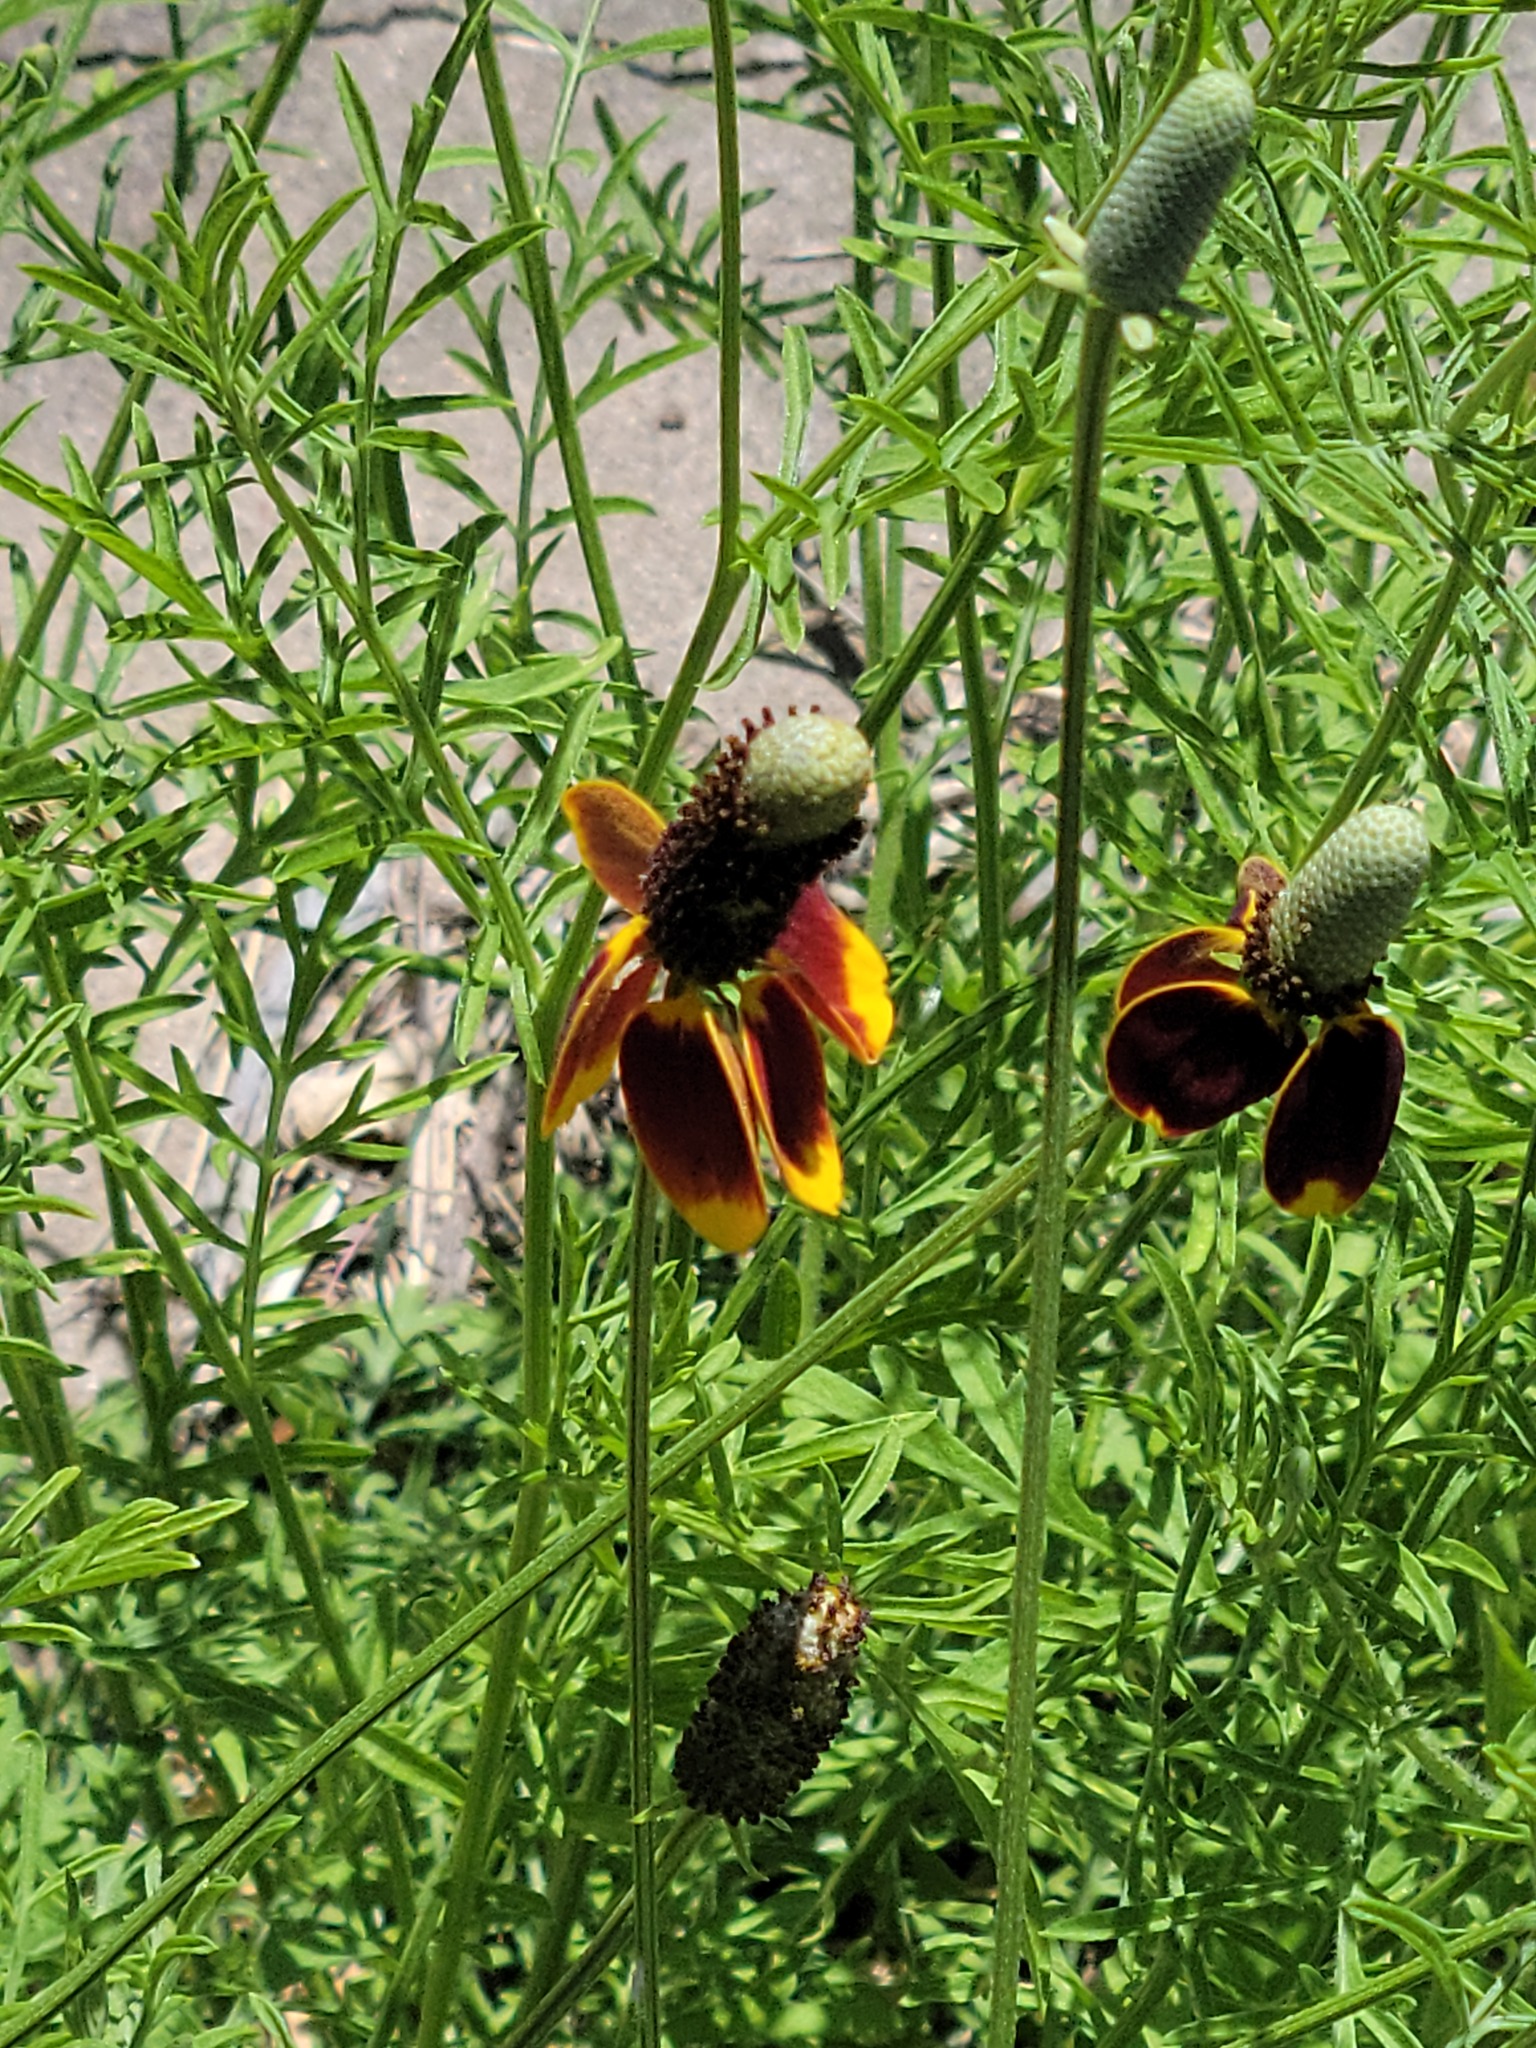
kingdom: Plantae
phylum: Tracheophyta
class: Magnoliopsida
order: Asterales
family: Asteraceae
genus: Ratibida
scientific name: Ratibida columnifera
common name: Prairie coneflower
